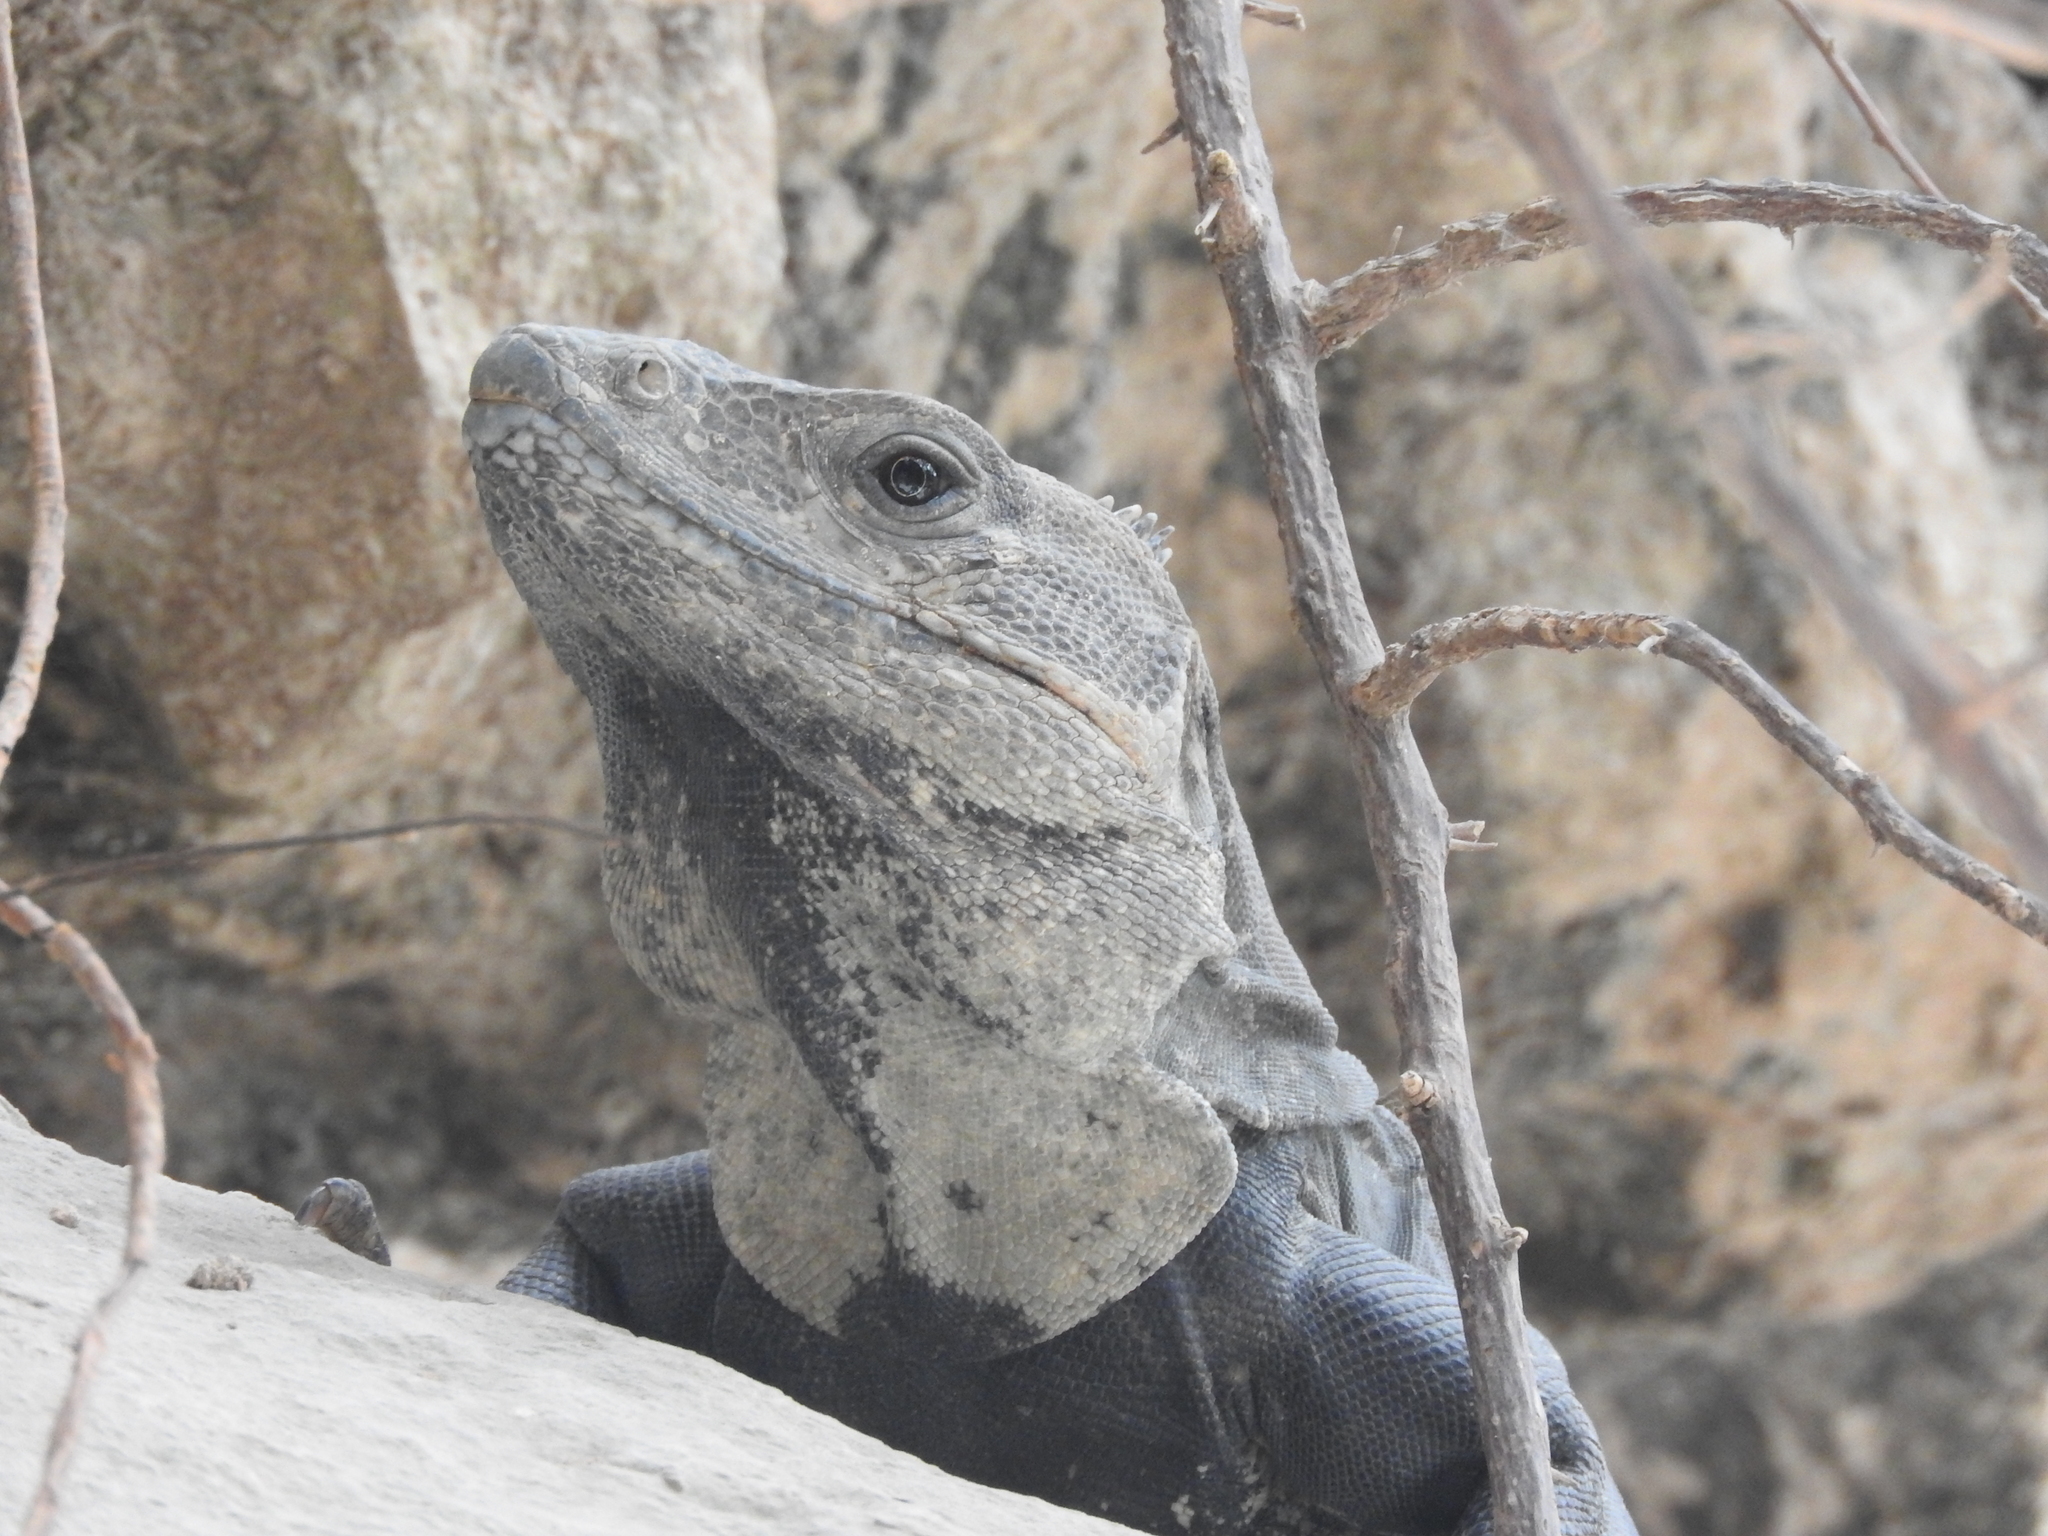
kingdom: Animalia
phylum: Chordata
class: Squamata
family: Iguanidae
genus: Ctenosaura
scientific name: Ctenosaura similis
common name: Black spiny-tailed iguana
